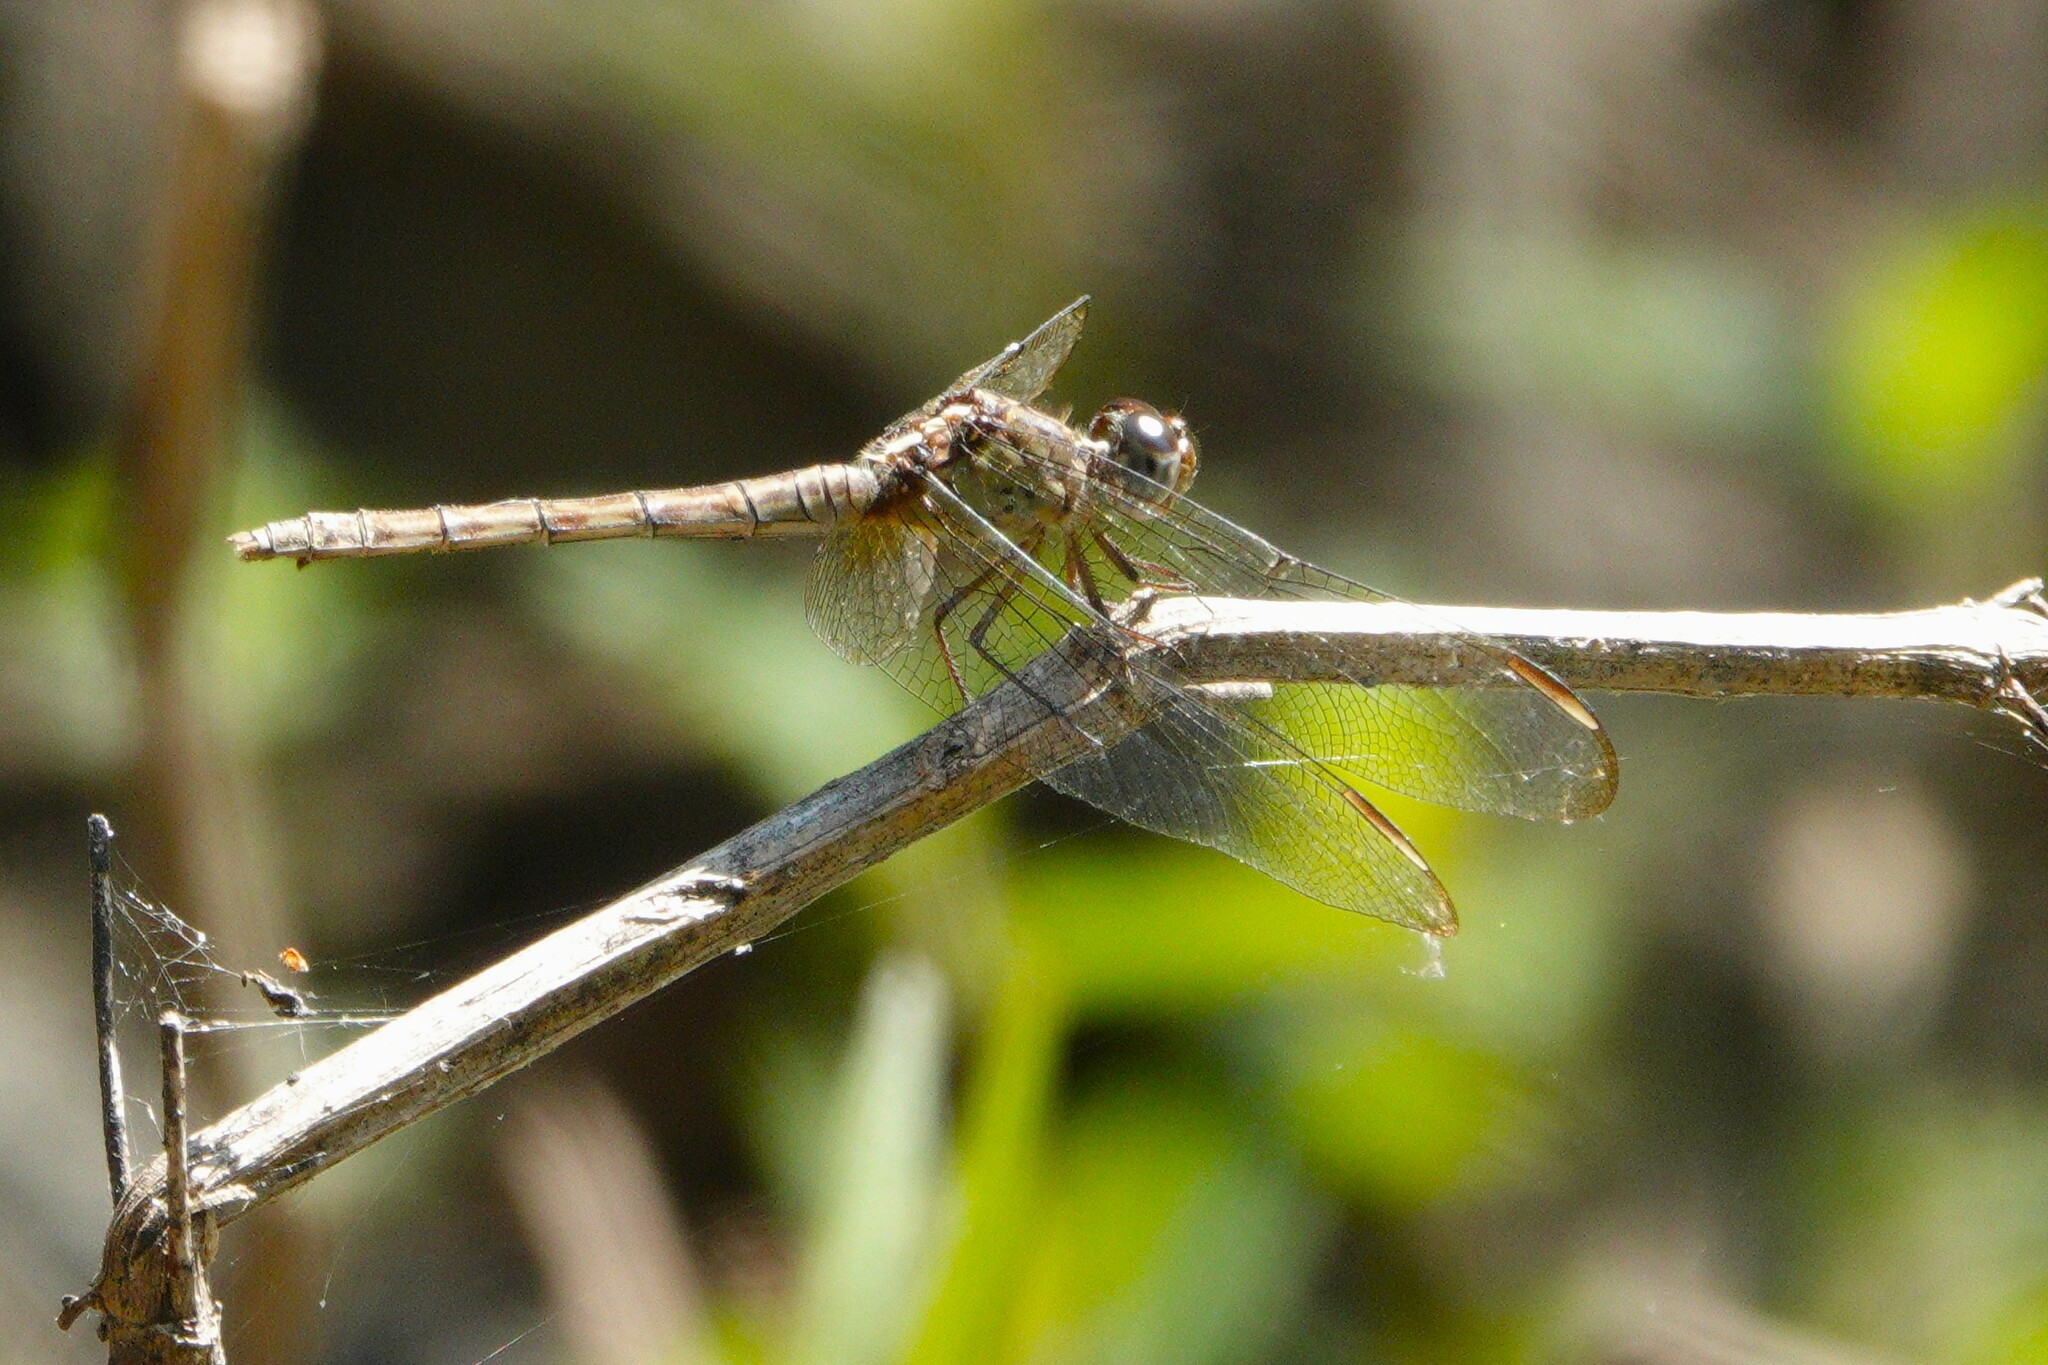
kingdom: Animalia
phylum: Arthropoda
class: Insecta
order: Odonata
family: Libellulidae
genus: Erythrodiplax
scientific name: Erythrodiplax umbrata
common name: Band-winged dragonlet
